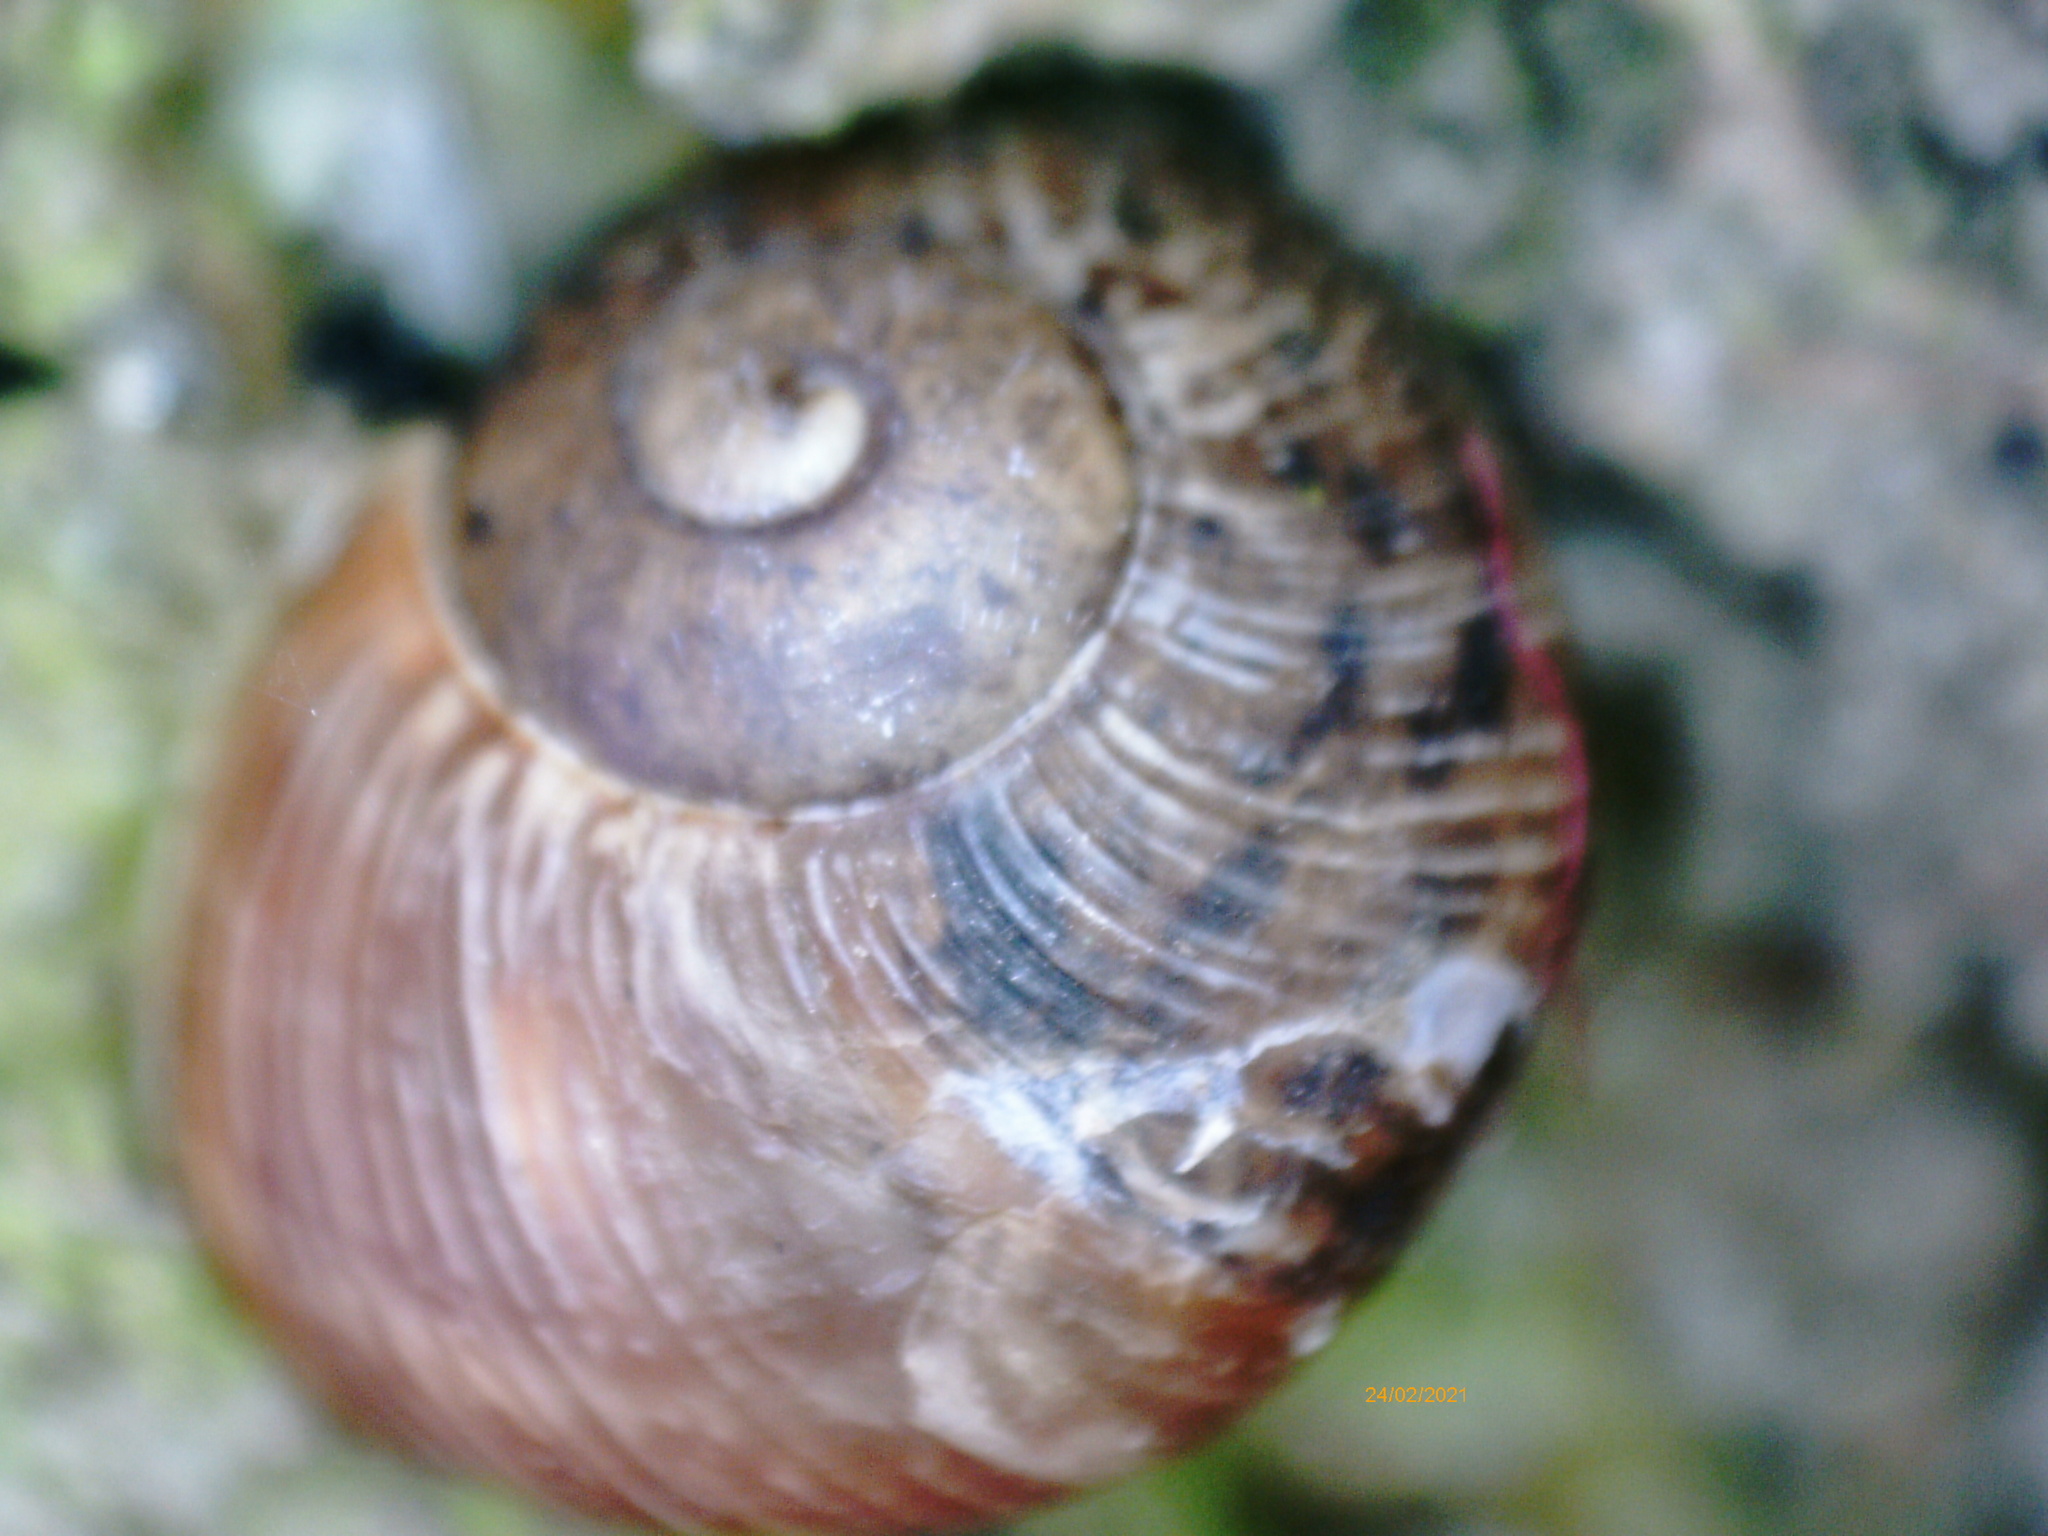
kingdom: Animalia
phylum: Mollusca
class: Gastropoda
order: Stylommatophora
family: Helicidae
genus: Cornu
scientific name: Cornu aspersum
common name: Brown garden snail
